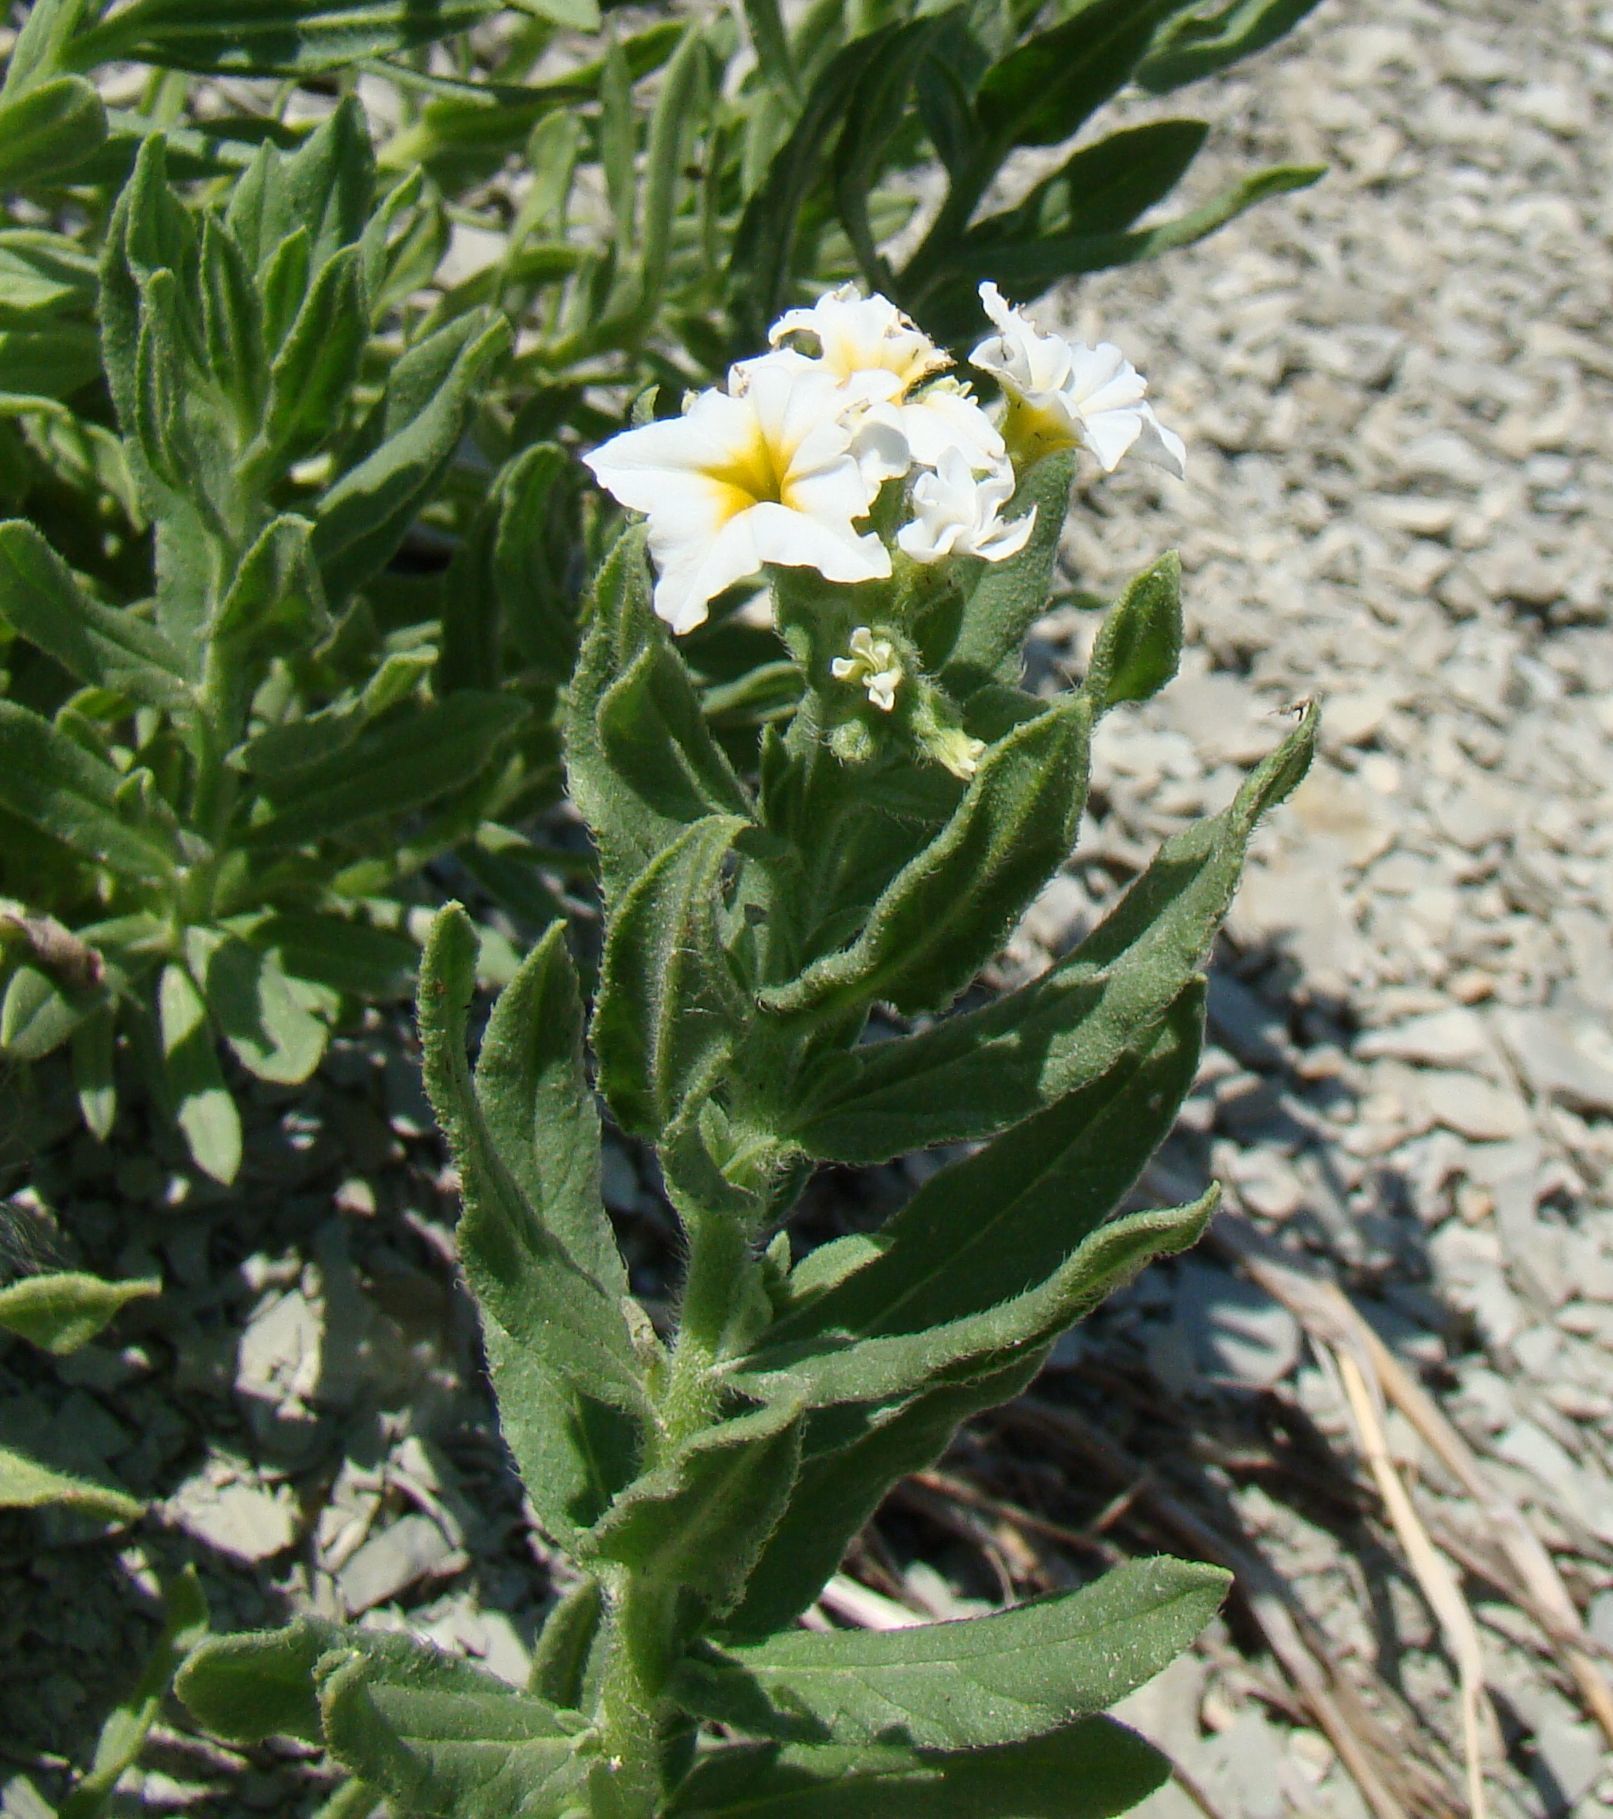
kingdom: Plantae
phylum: Tracheophyta
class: Magnoliopsida
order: Boraginales
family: Heliotropiaceae
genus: Tournefortia
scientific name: Tournefortia sibirica
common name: Siberian sea rosemary
